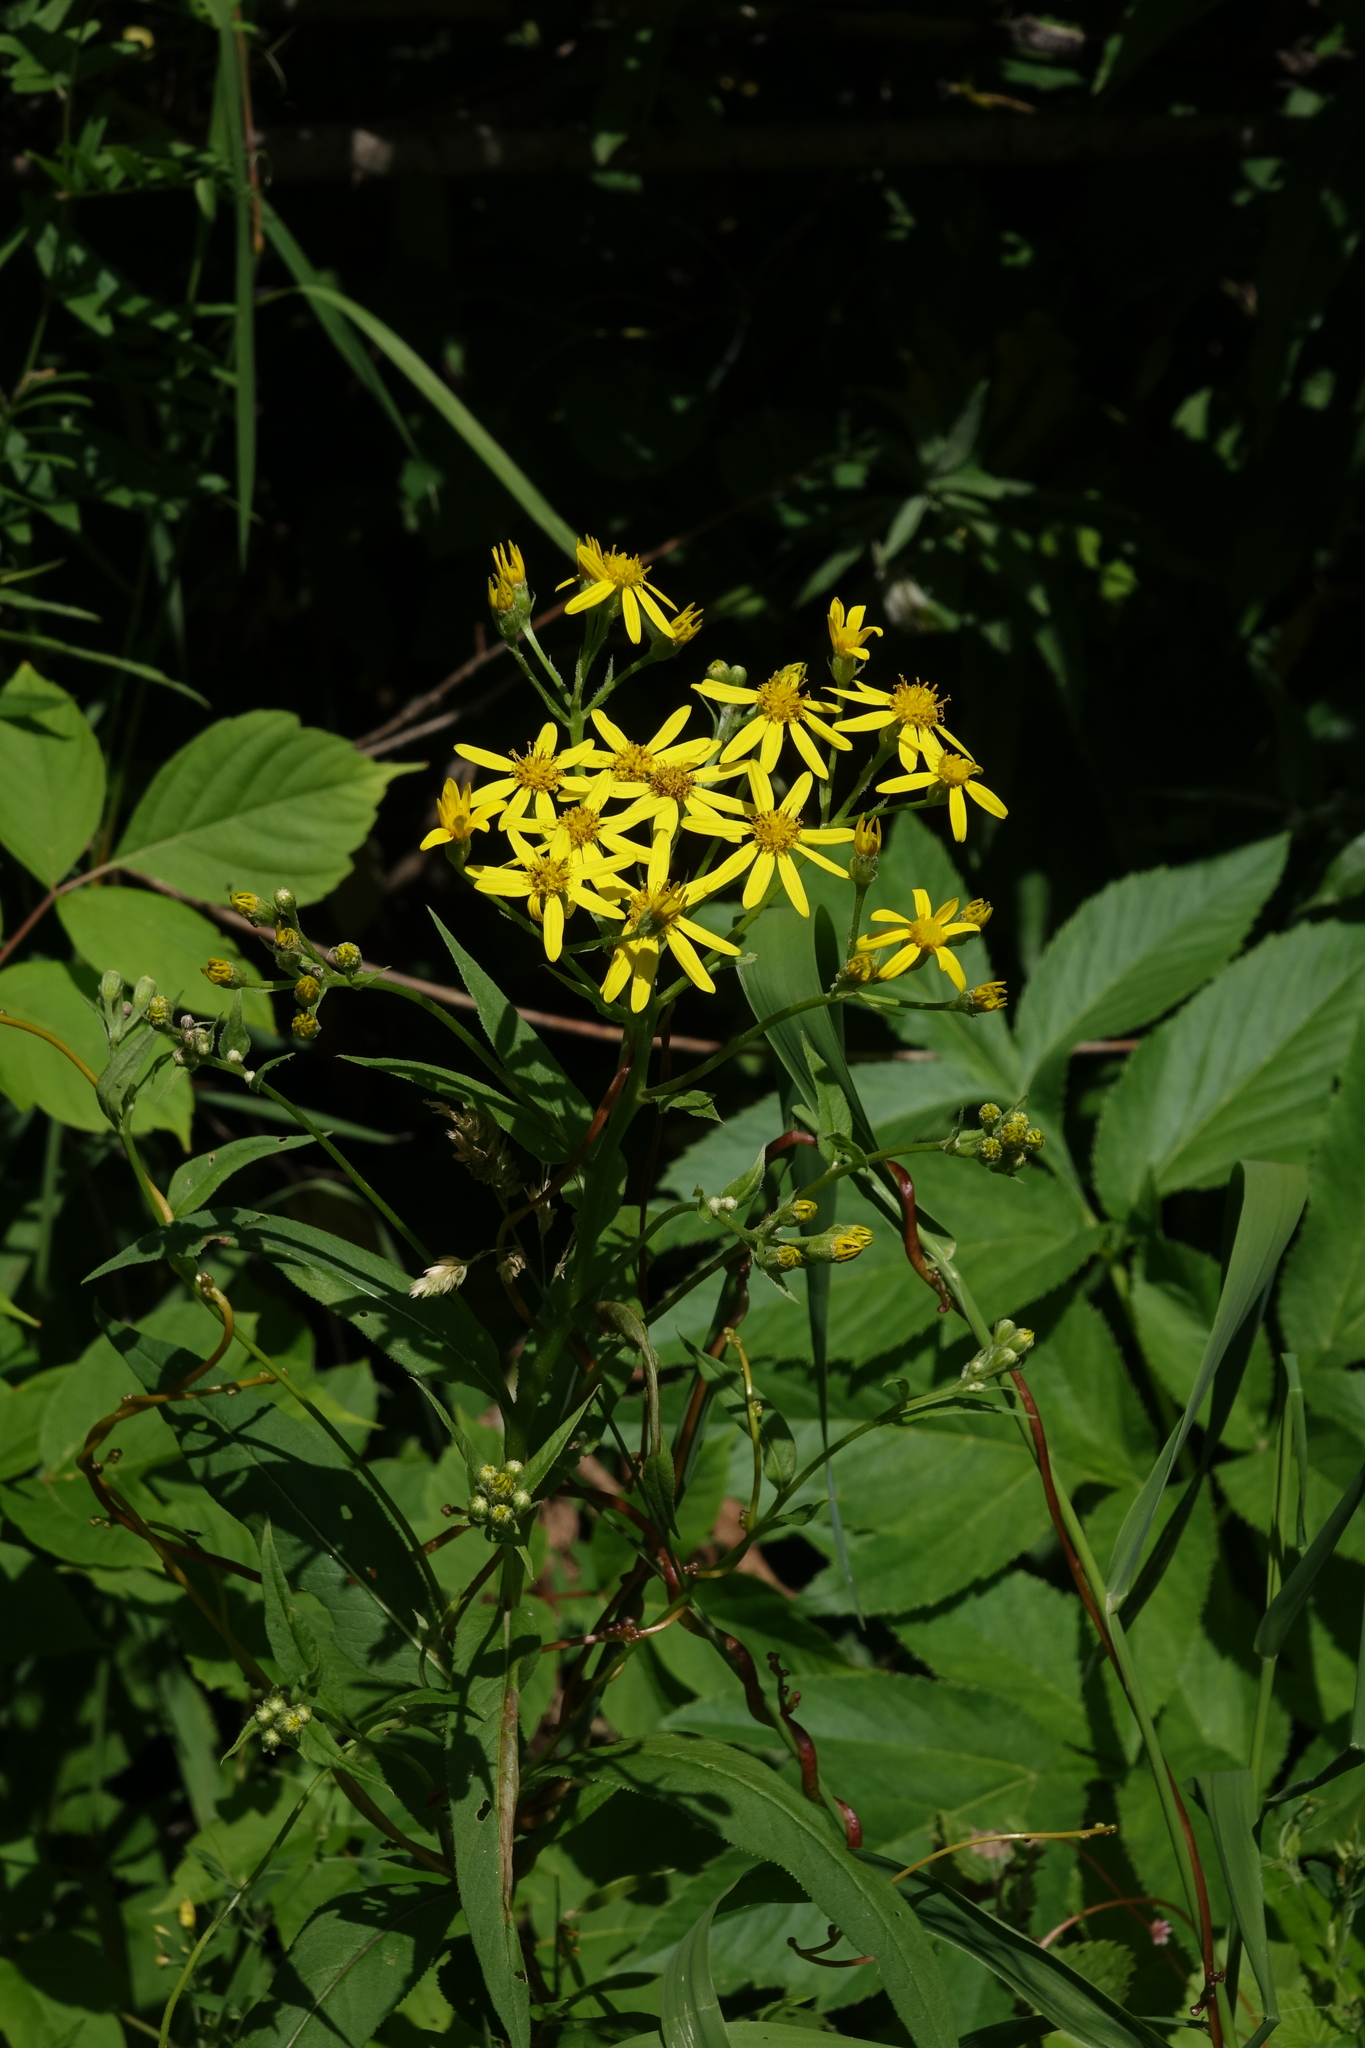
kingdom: Plantae
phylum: Tracheophyta
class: Magnoliopsida
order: Asterales
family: Asteraceae
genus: Senecio
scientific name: Senecio nemorensis
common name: Alpine ragwort
